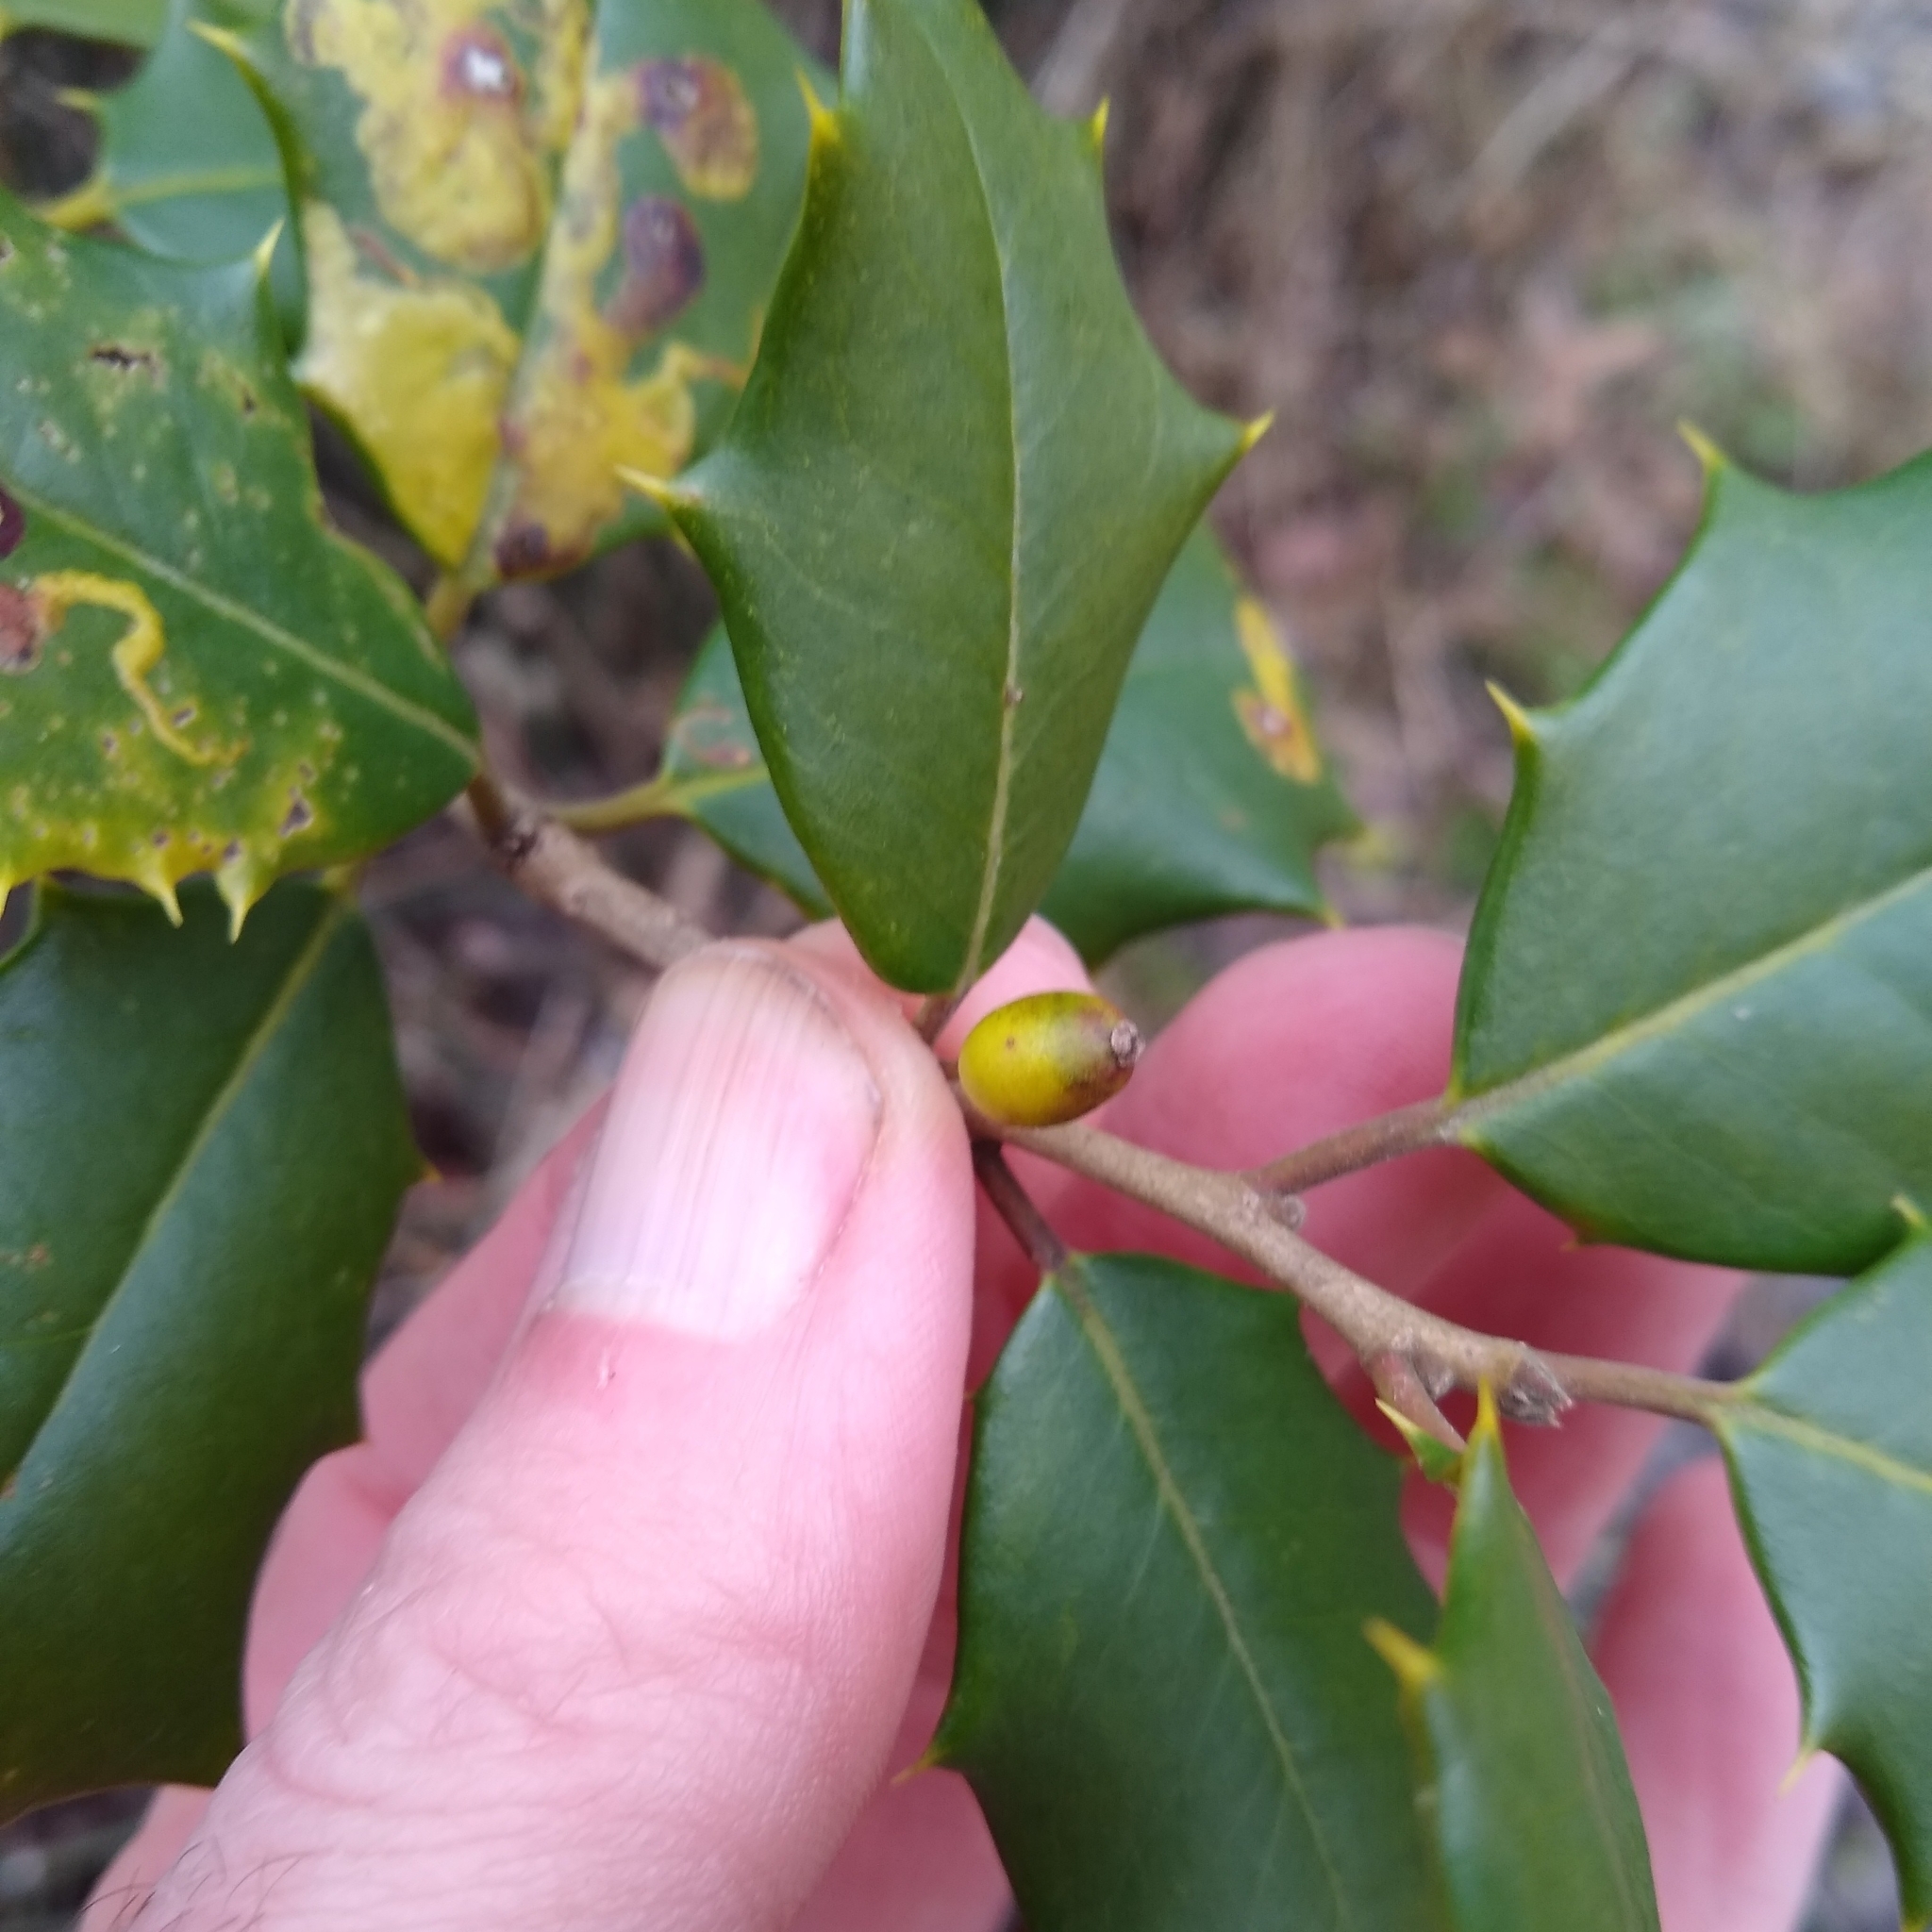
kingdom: Plantae
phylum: Tracheophyta
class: Magnoliopsida
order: Aquifoliales
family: Aquifoliaceae
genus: Ilex
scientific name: Ilex opaca
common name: American holly
